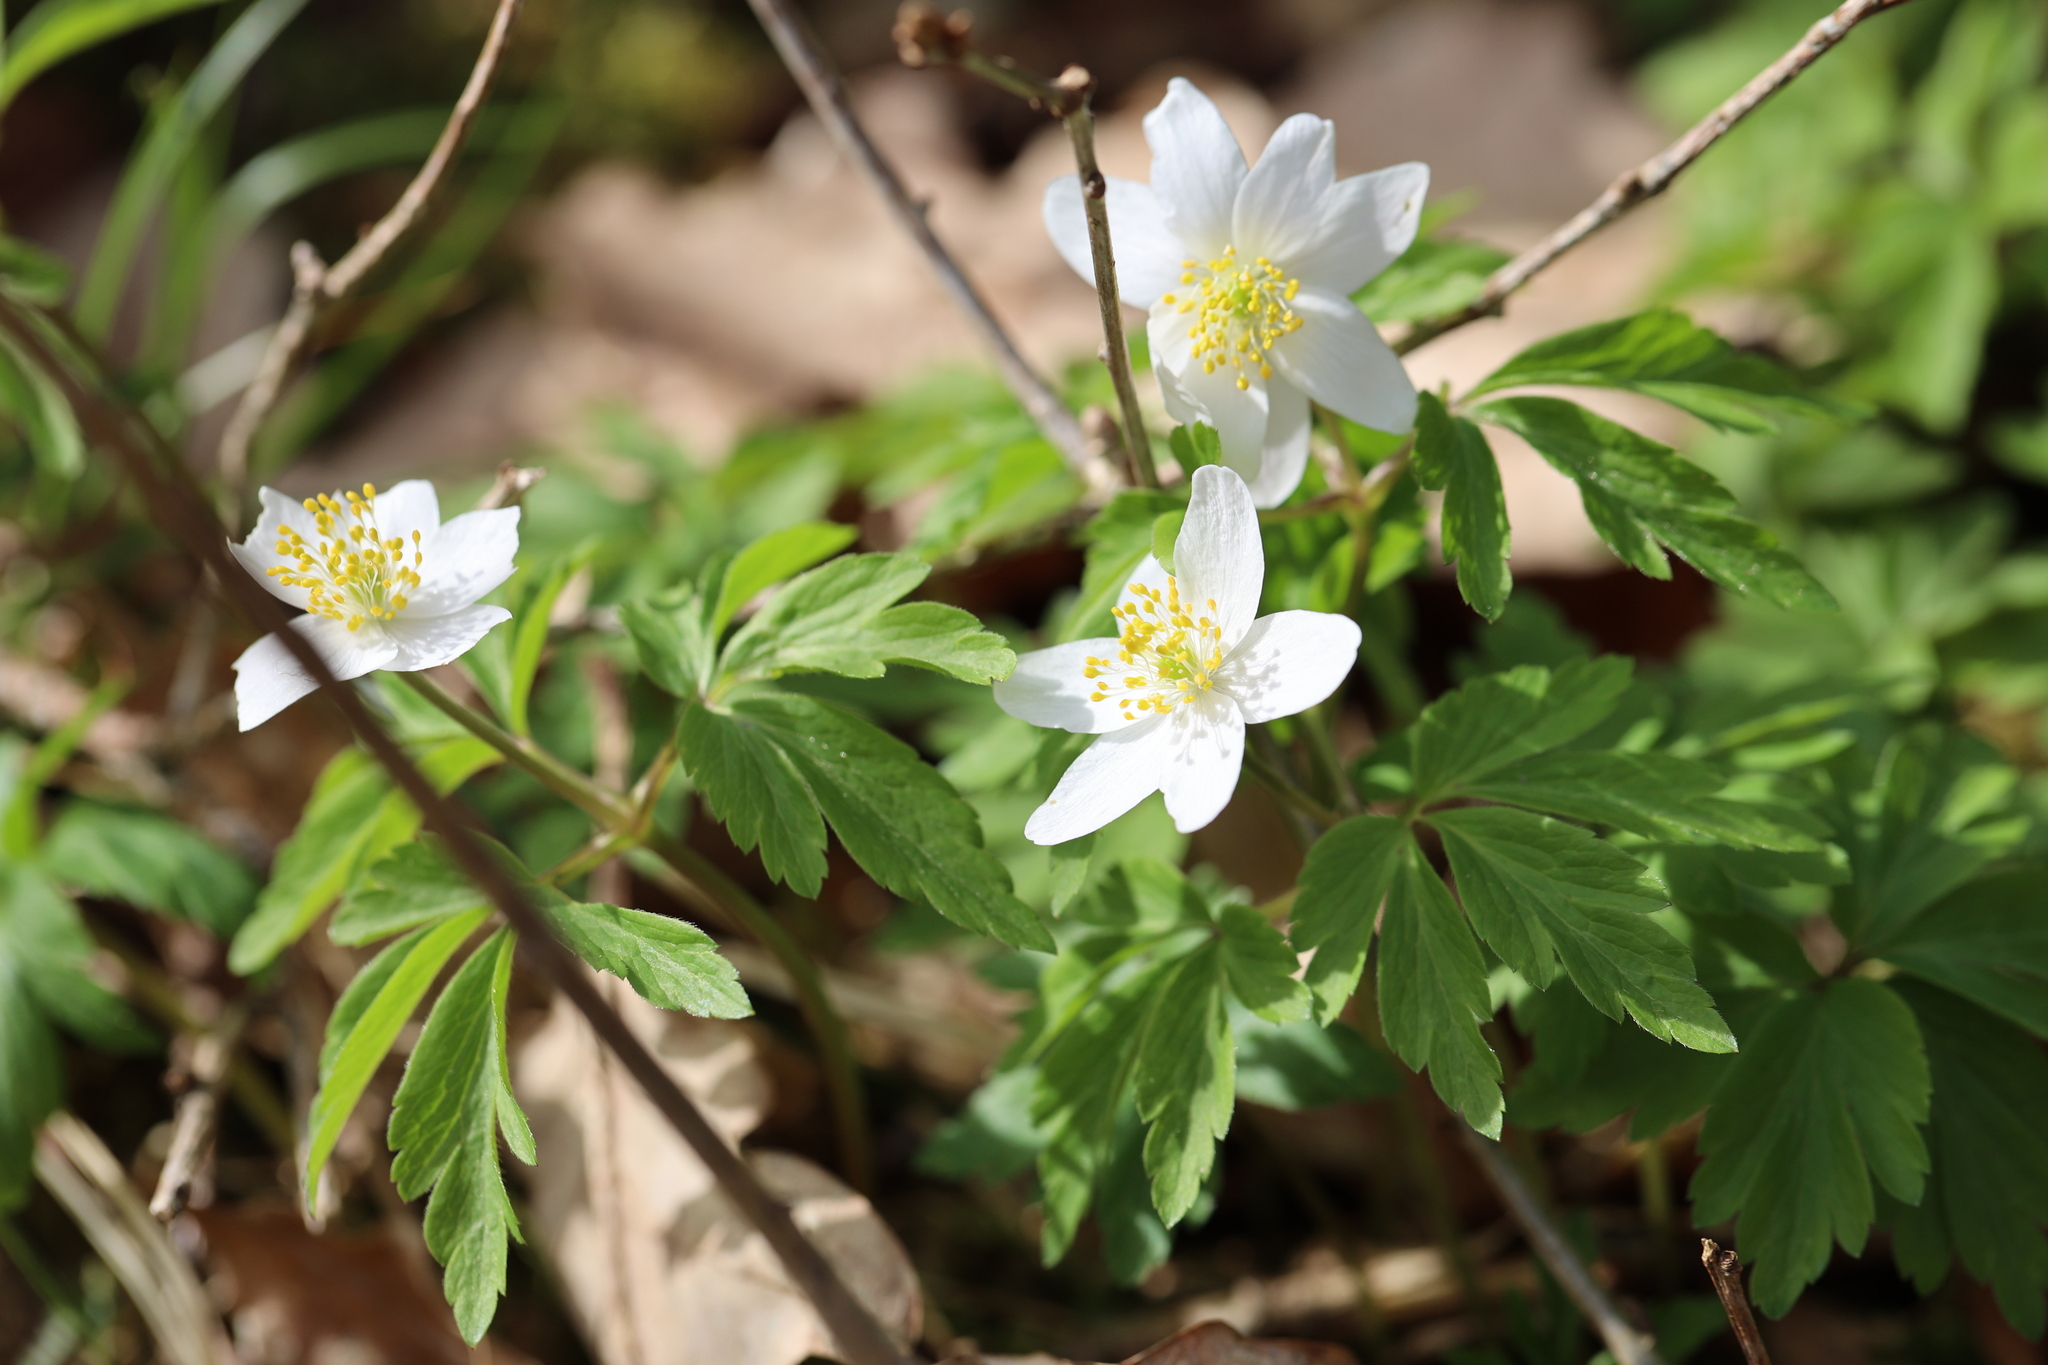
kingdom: Plantae
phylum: Tracheophyta
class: Magnoliopsida
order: Ranunculales
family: Ranunculaceae
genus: Anemone
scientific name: Anemone nemorosa
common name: Wood anemone
